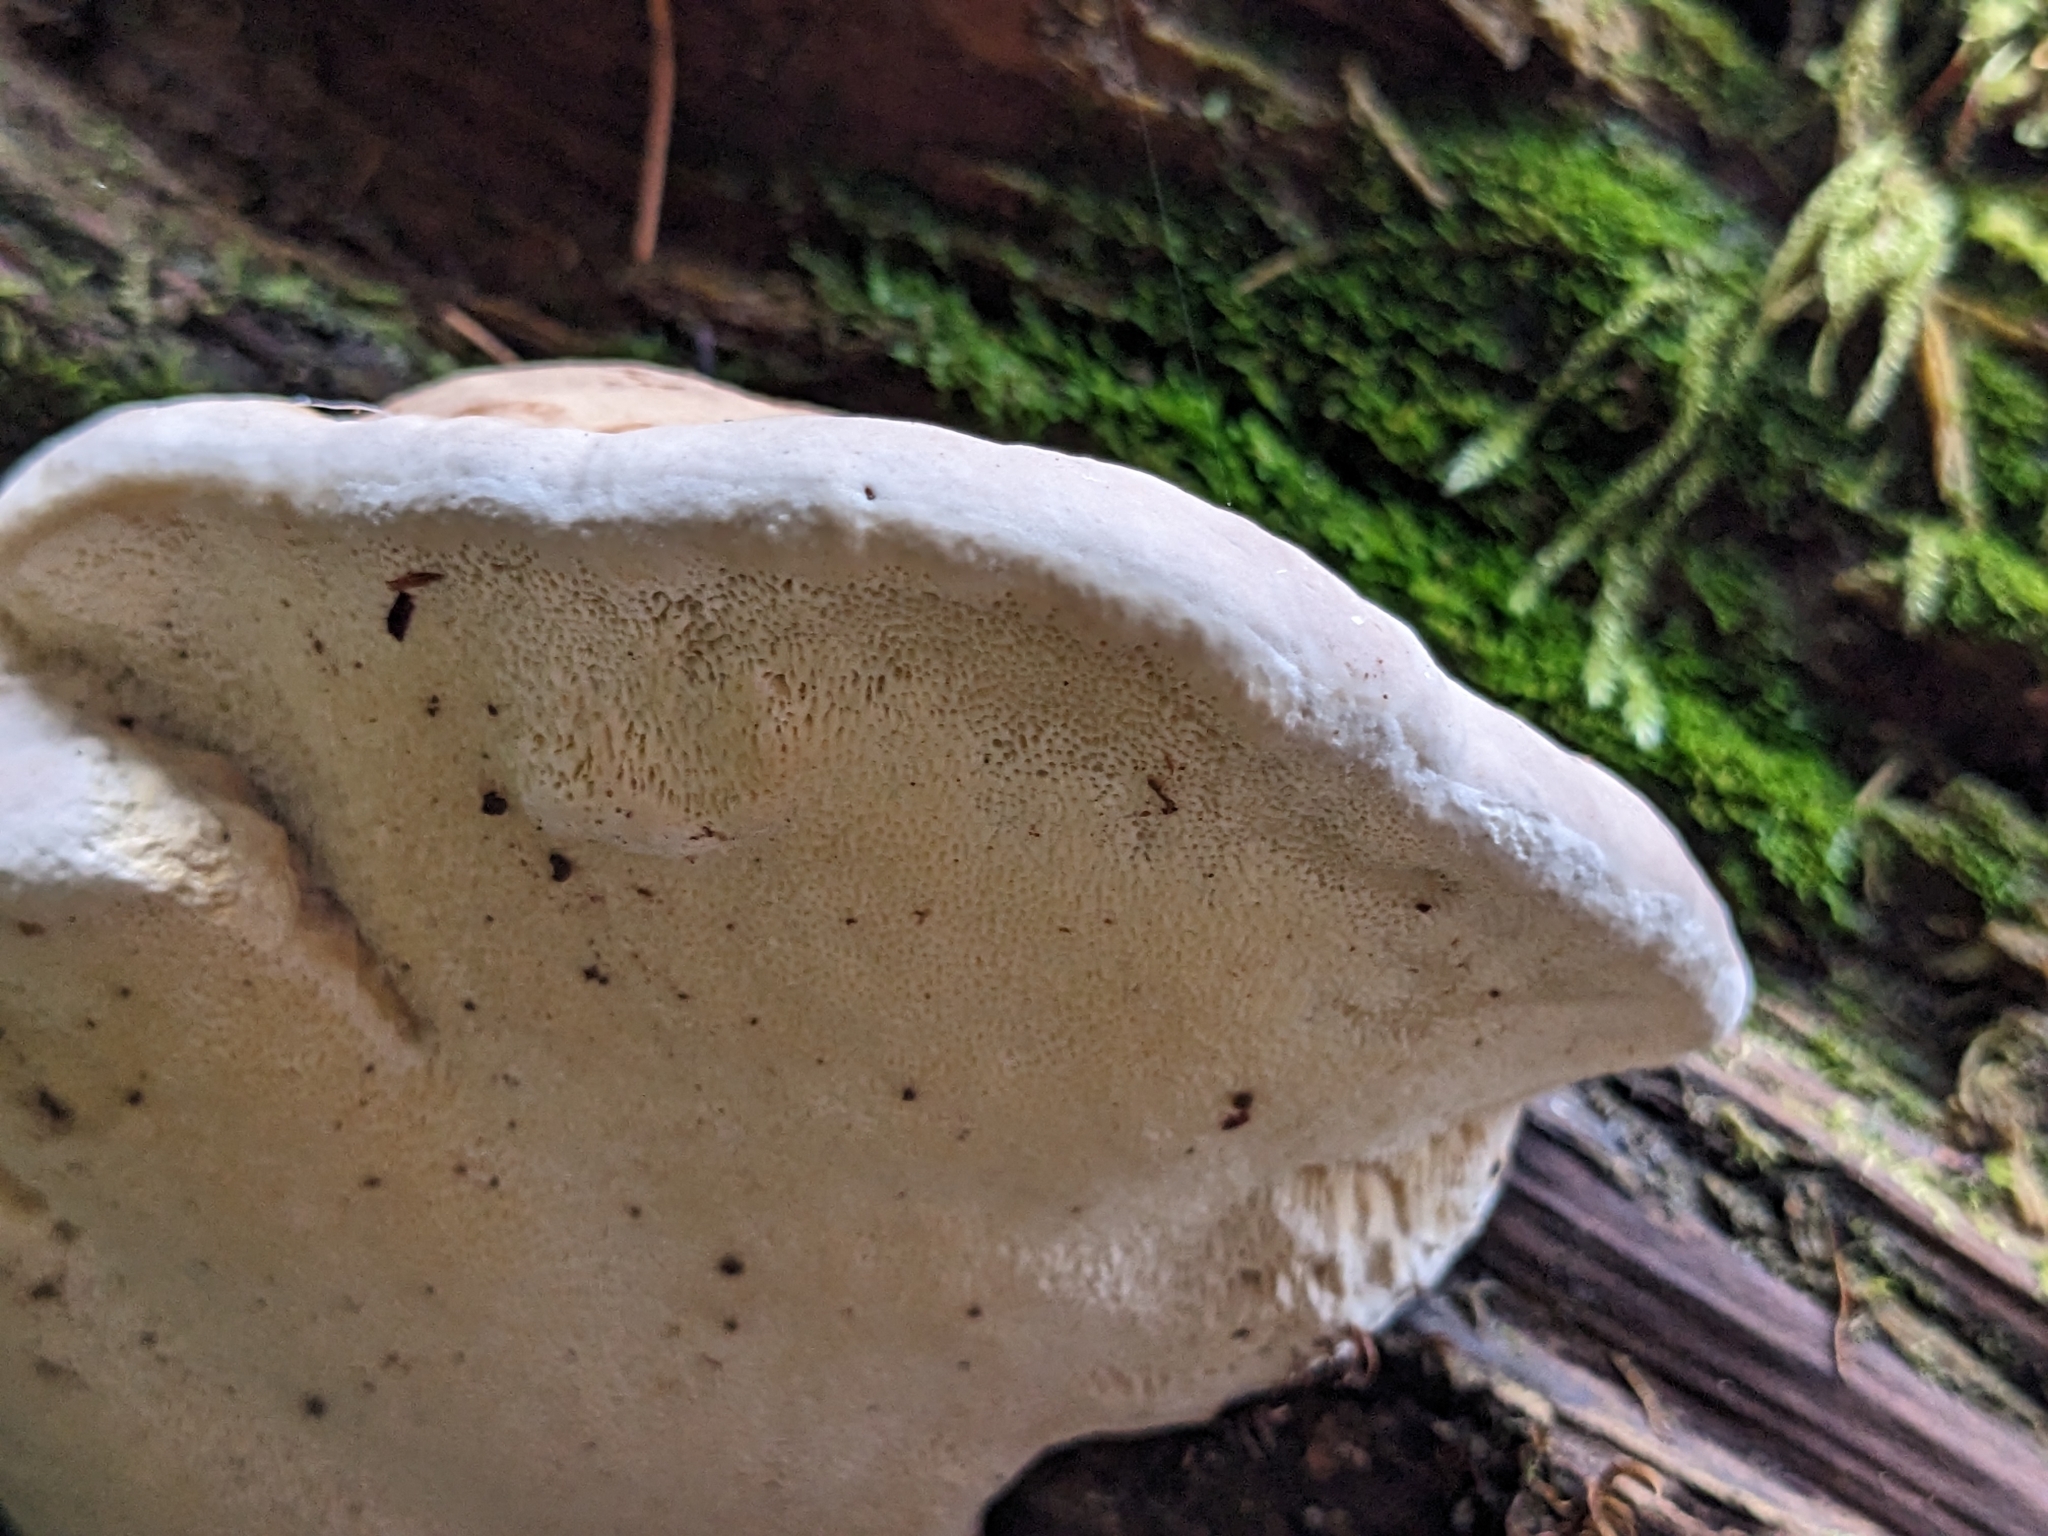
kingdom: Fungi
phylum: Basidiomycota
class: Agaricomycetes
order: Polyporales
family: Fomitopsidaceae
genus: Fomitopsis
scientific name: Fomitopsis pinicola
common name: Red-belted bracket
